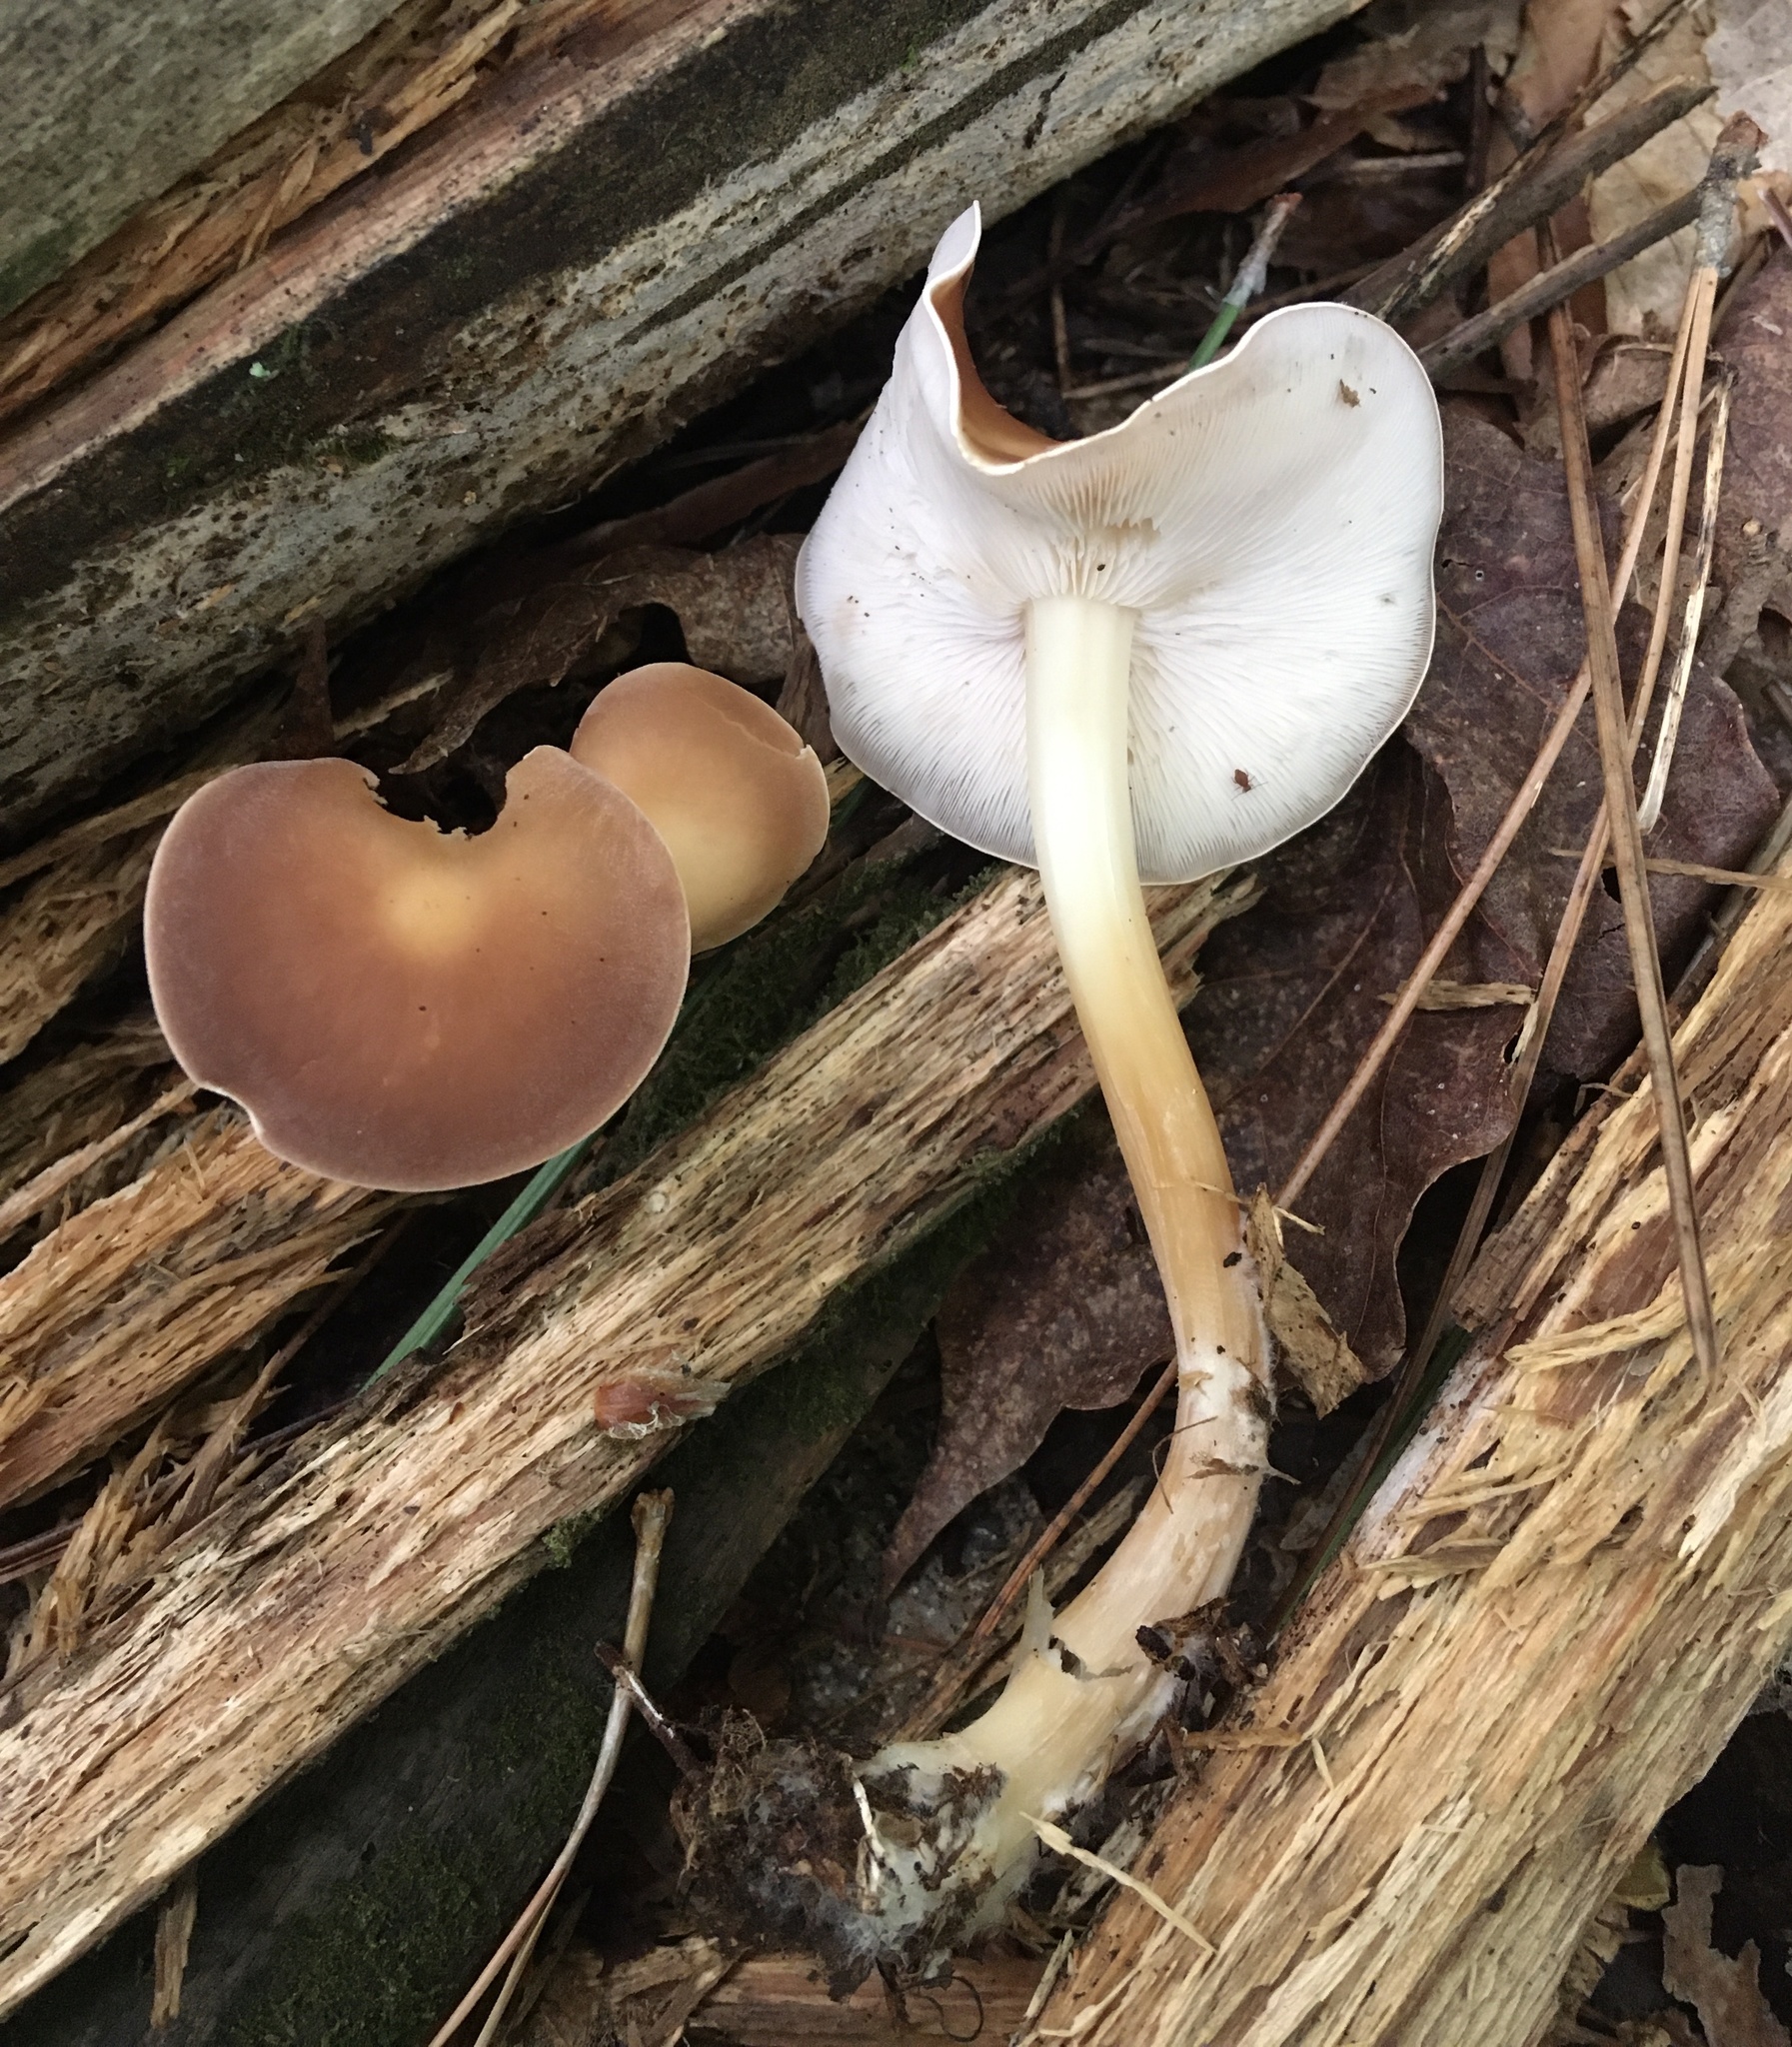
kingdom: Fungi
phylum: Basidiomycota
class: Agaricomycetes
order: Agaricales
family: Omphalotaceae
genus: Gymnopus
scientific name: Gymnopus dryophilus
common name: Penny top
